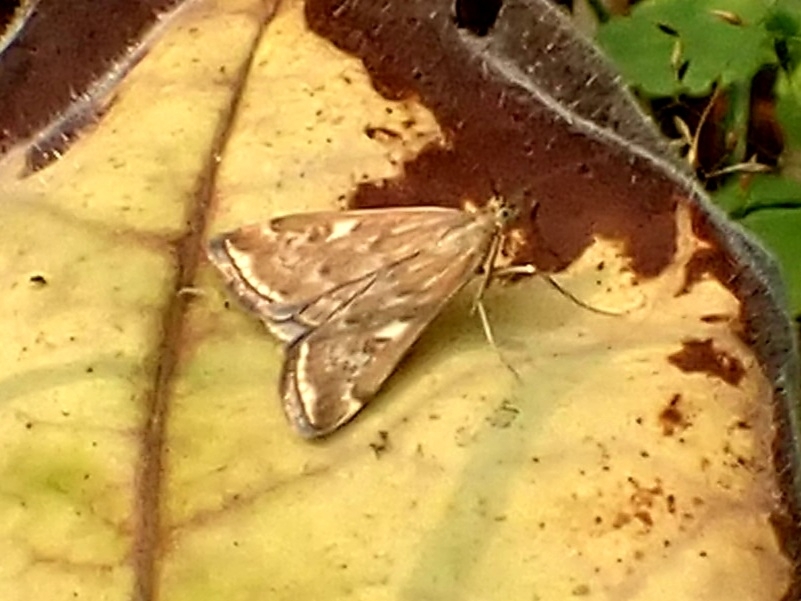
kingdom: Animalia
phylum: Arthropoda
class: Insecta
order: Lepidoptera
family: Crambidae
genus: Loxostege
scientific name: Loxostege sticticalis
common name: Crambid moth
